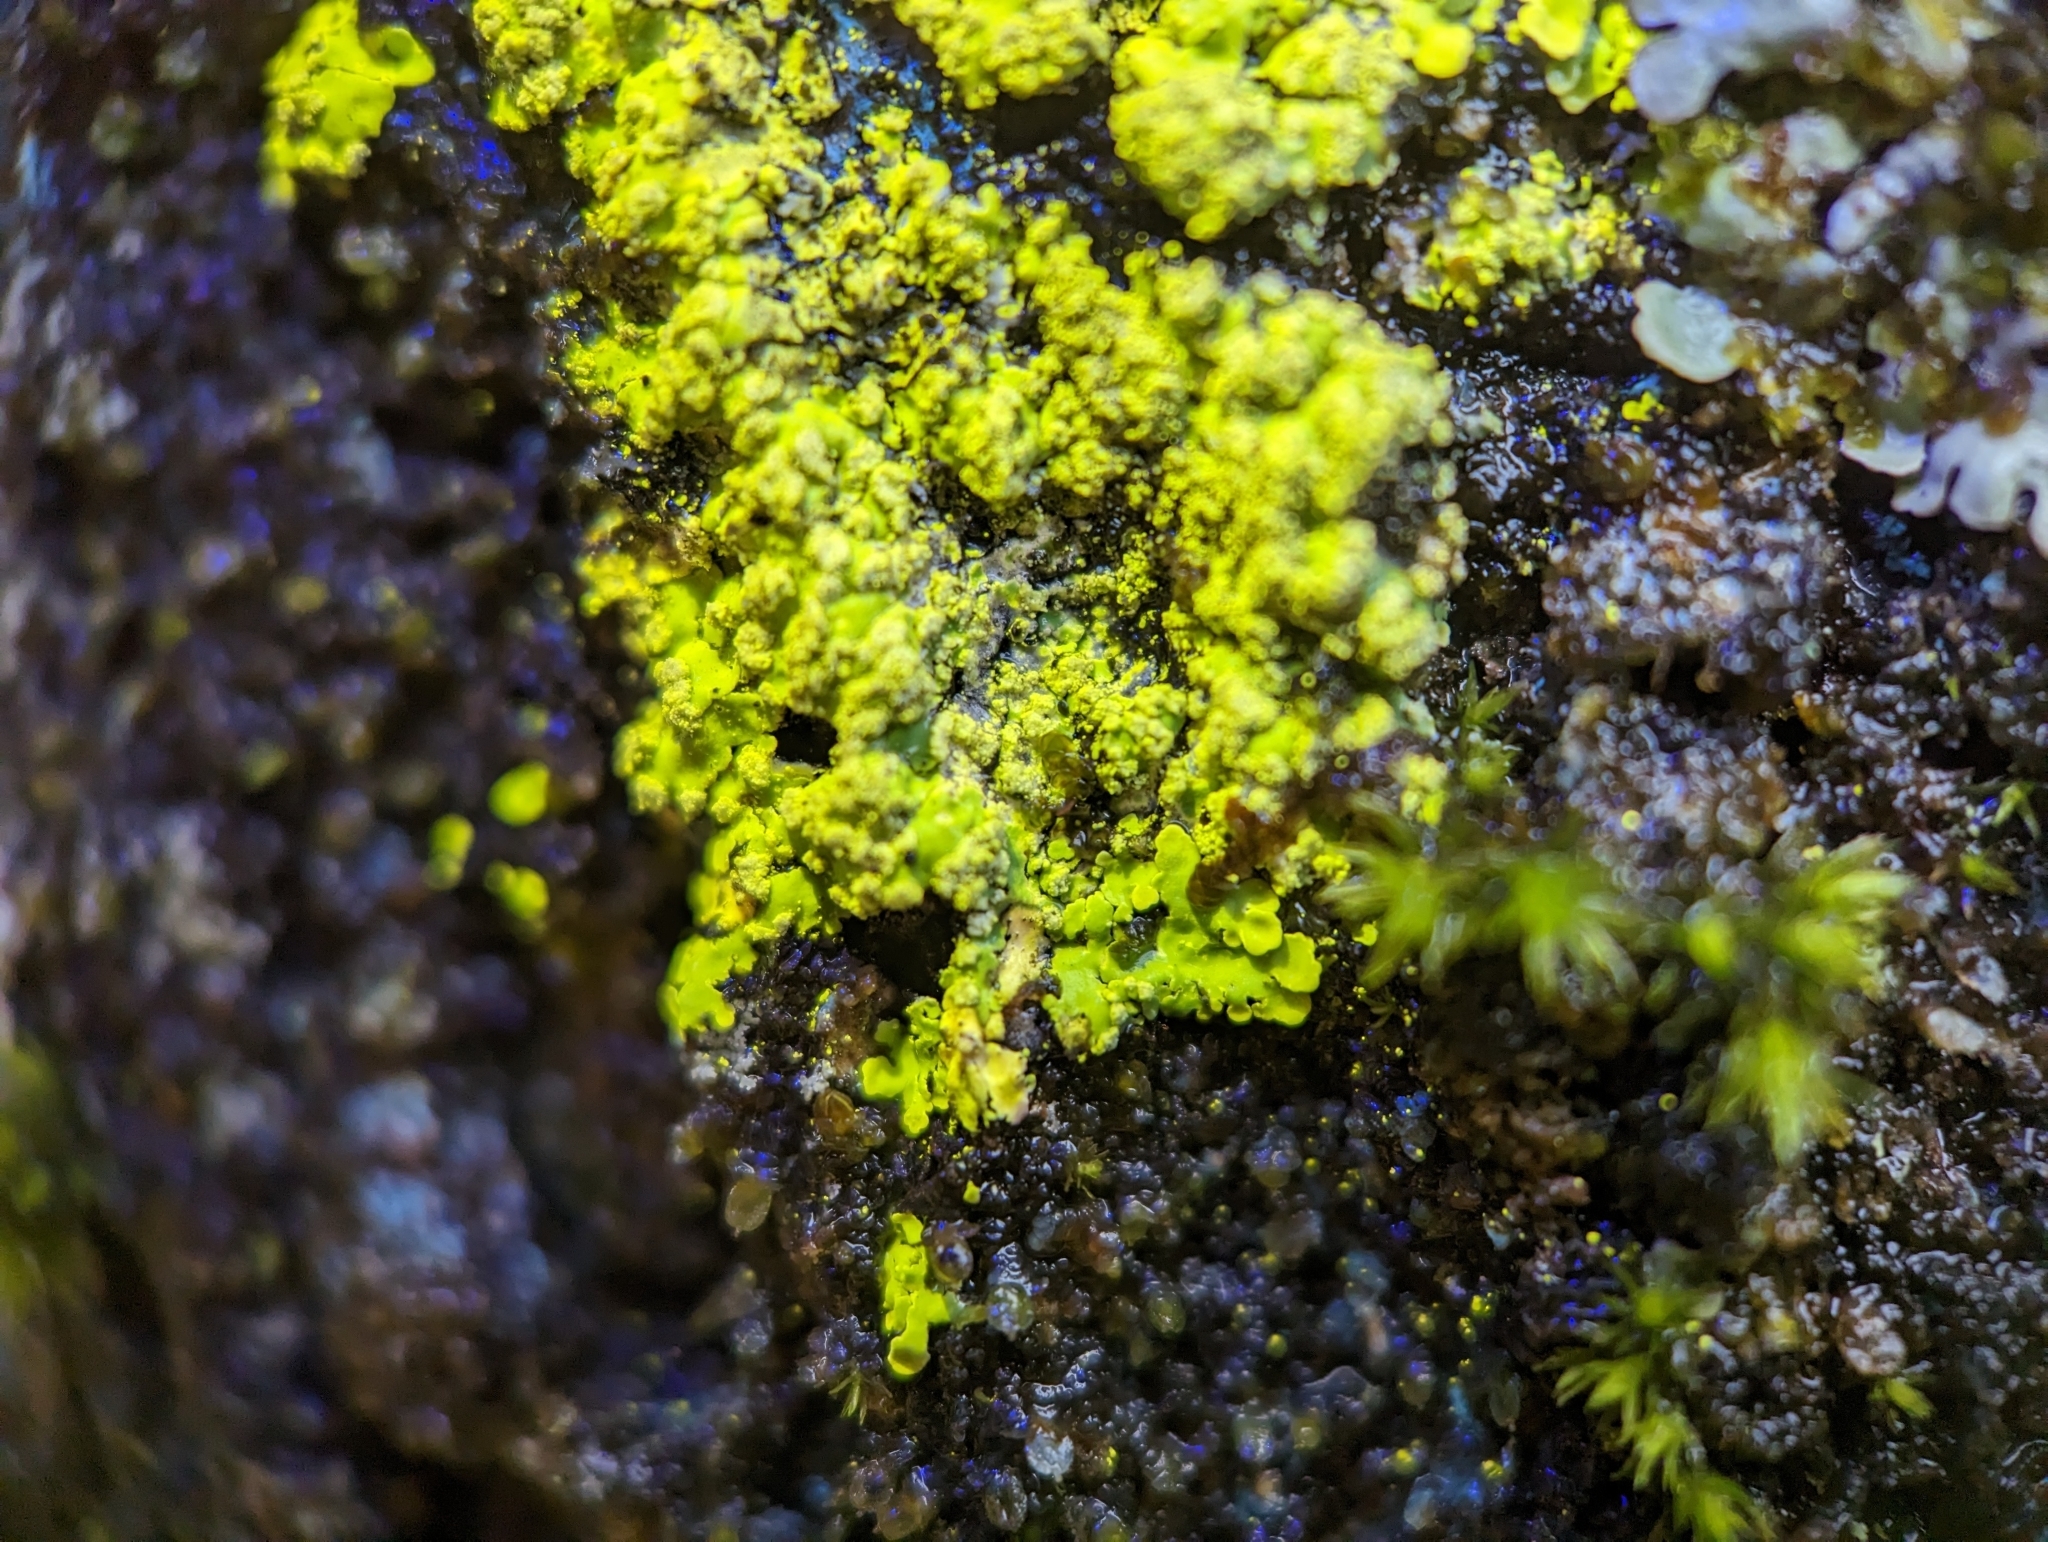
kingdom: Fungi
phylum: Ascomycota
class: Lecanoromycetes
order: Caliciales
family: Caliciaceae
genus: Pyxine
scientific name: Pyxine subcinerea
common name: Mustard lichen
